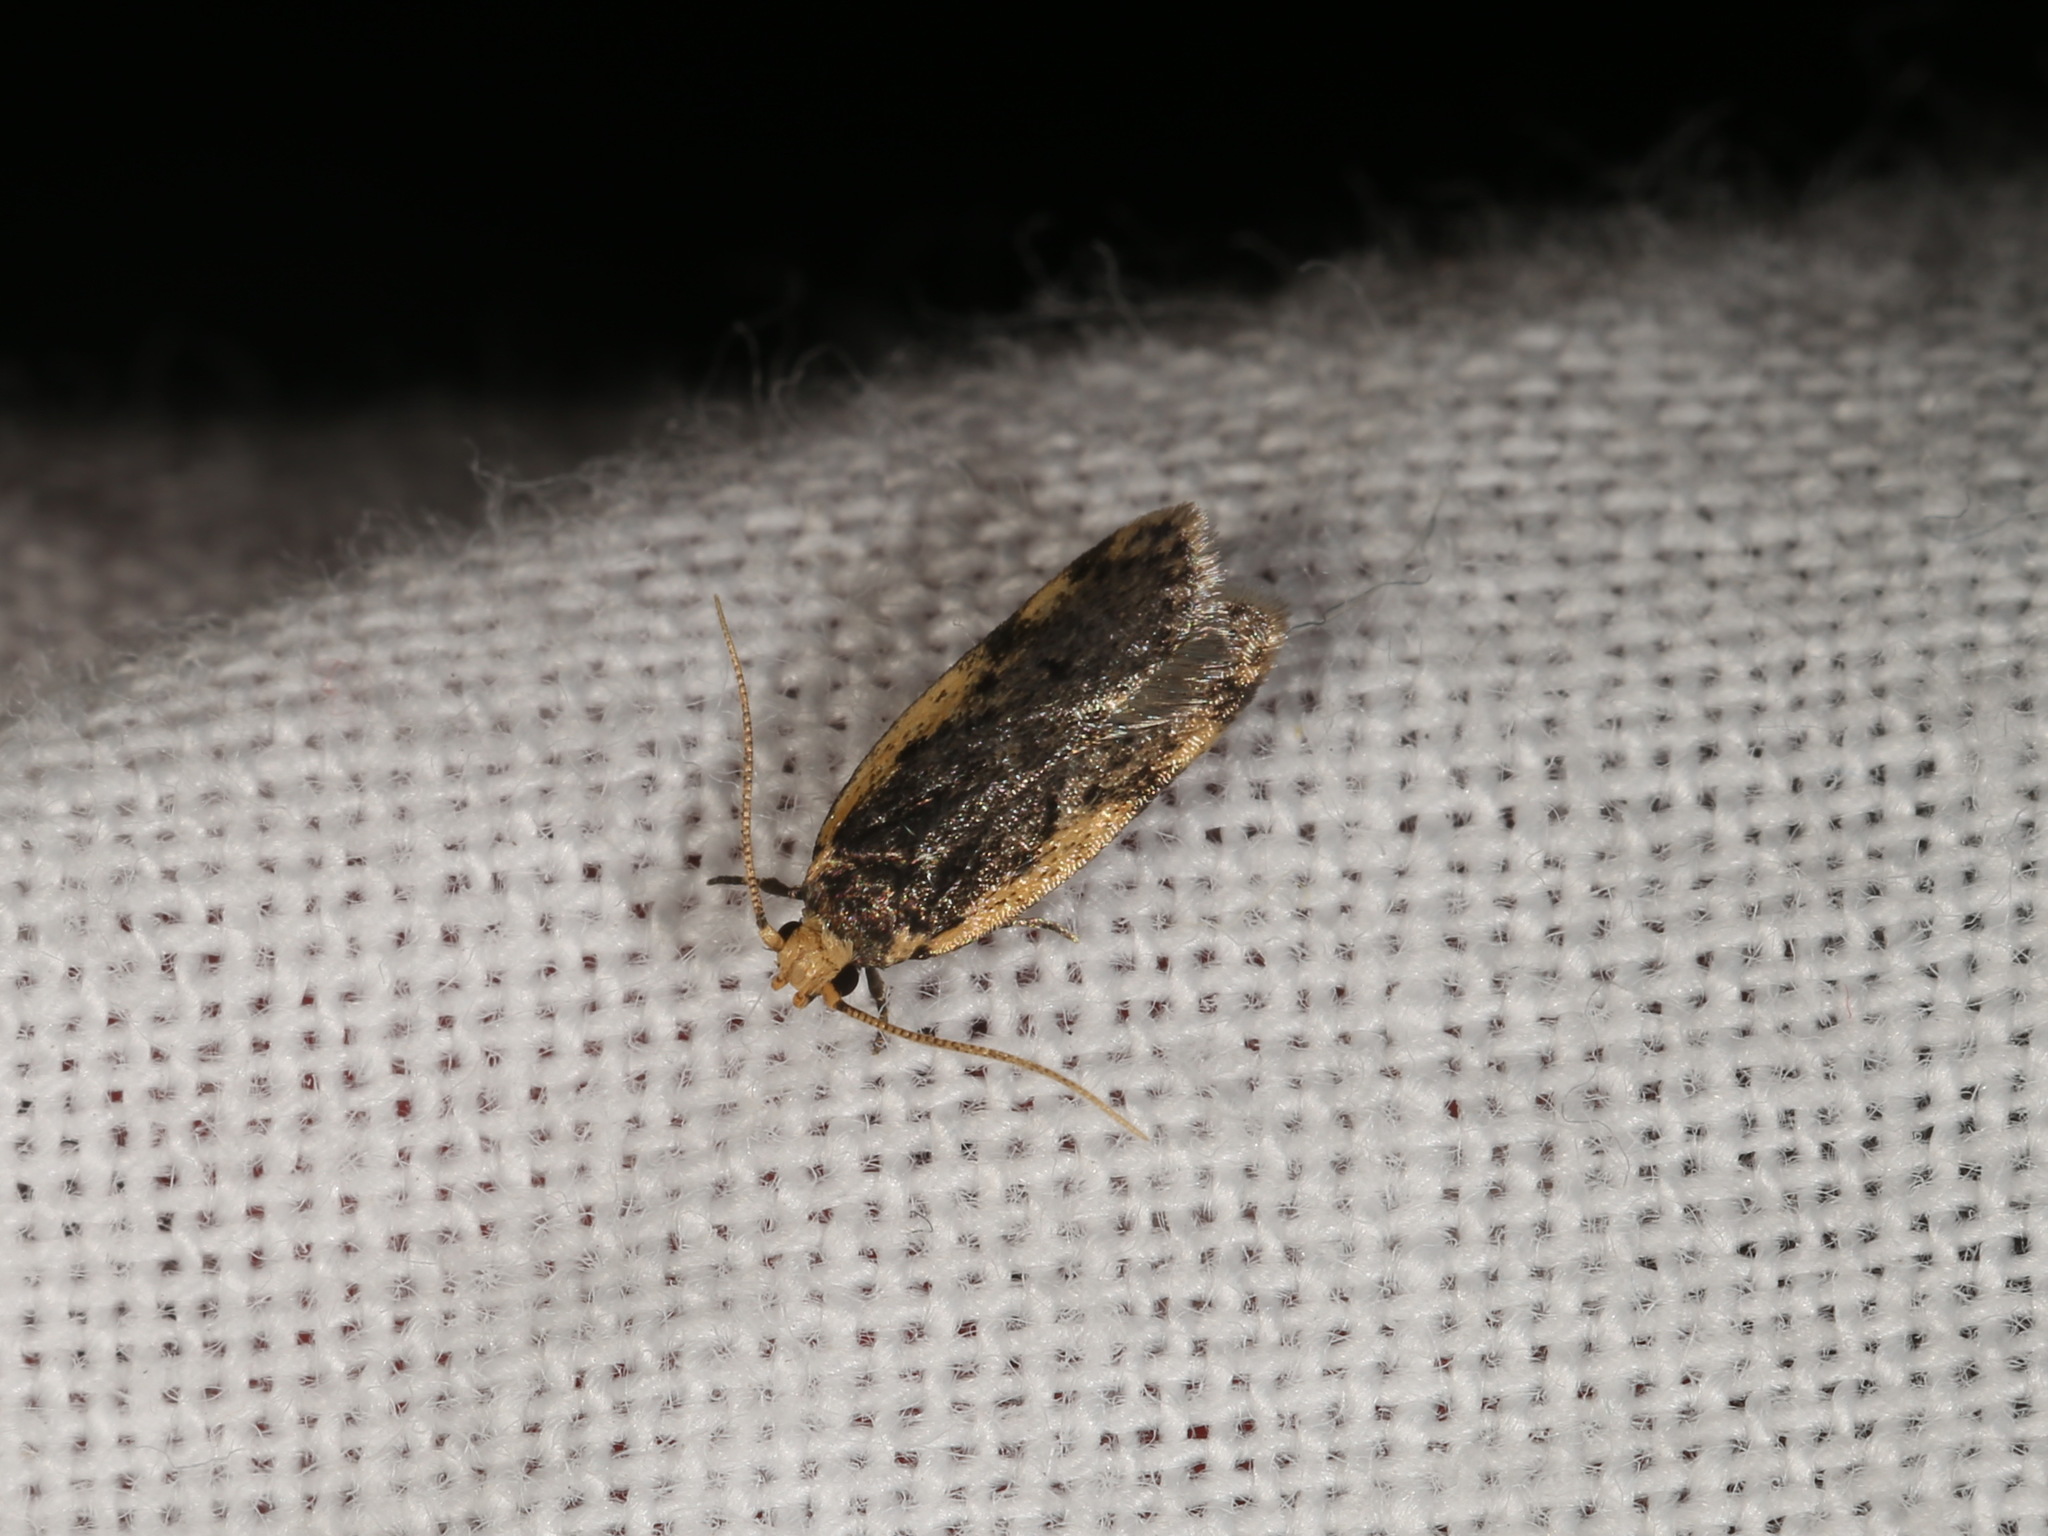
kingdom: Animalia
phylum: Arthropoda
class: Insecta
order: Lepidoptera
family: Oecophoridae
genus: Hoplostega
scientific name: Hoplostega ochroma
